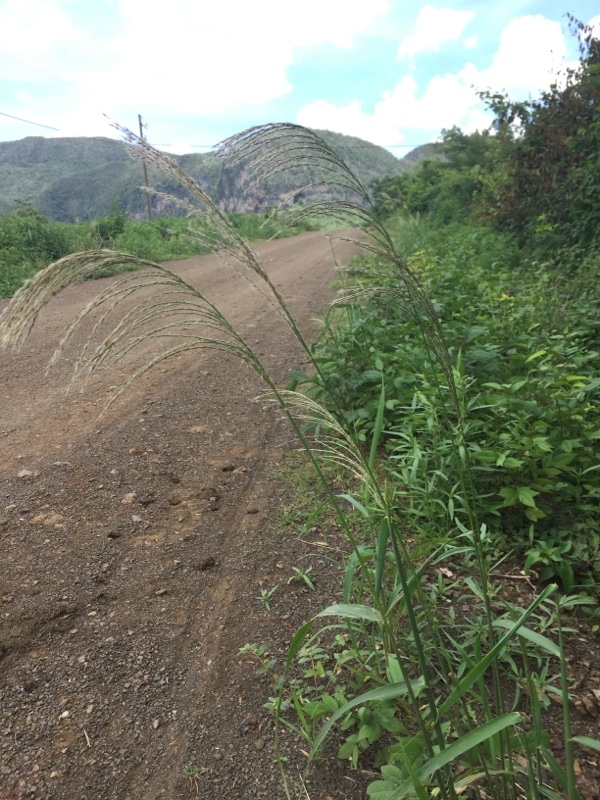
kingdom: Plantae
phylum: Tracheophyta
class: Liliopsida
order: Poales
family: Poaceae
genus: Paspalum
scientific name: Paspalum urvillei
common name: Vasey's grass
